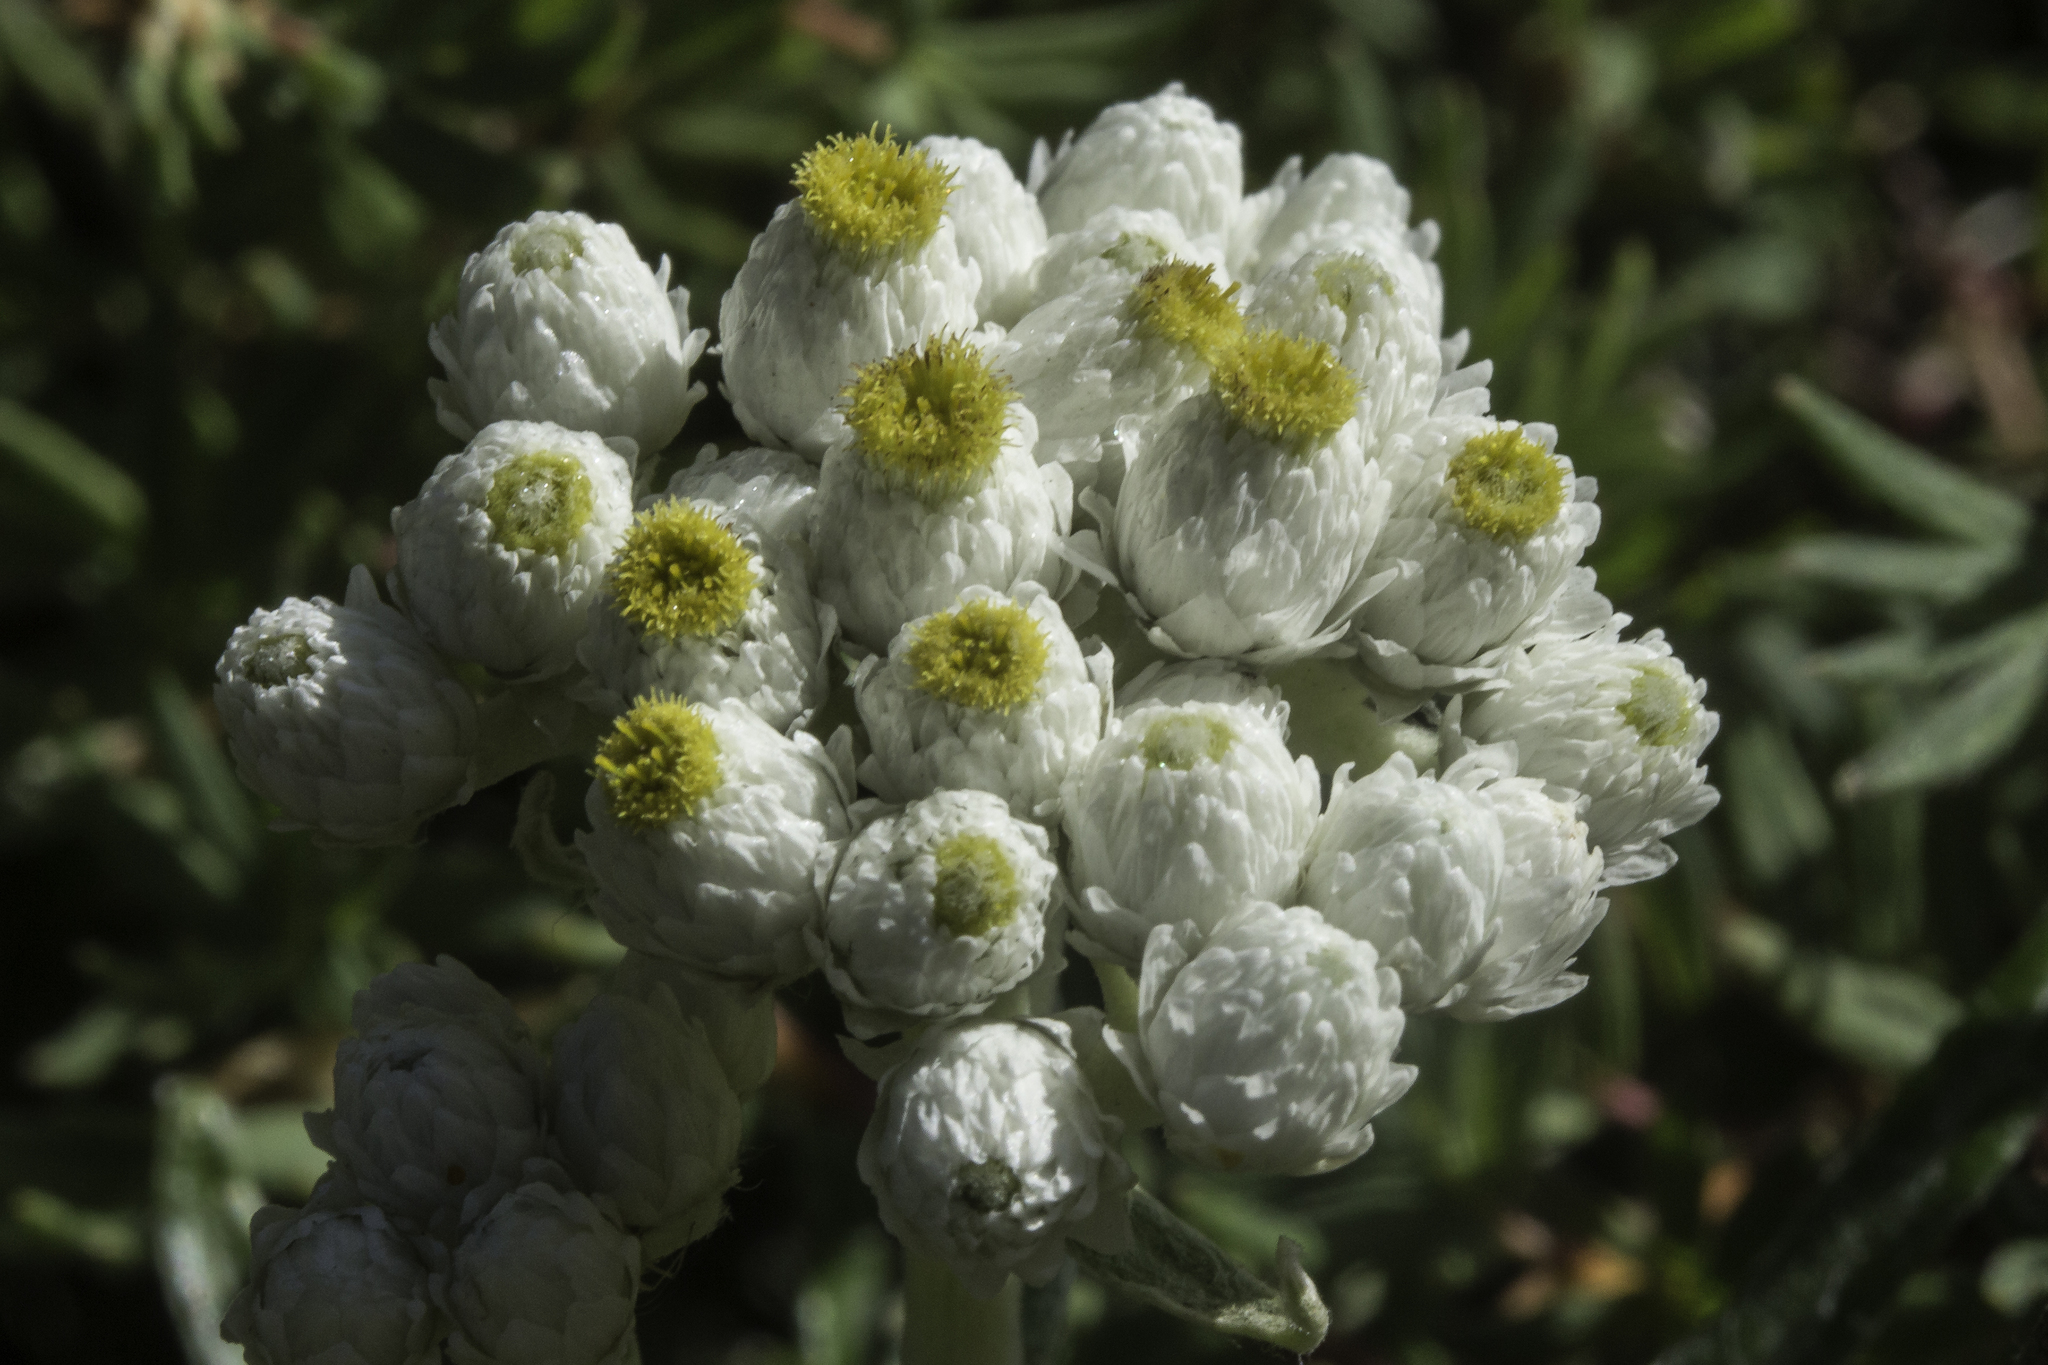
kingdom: Plantae
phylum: Tracheophyta
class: Magnoliopsida
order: Asterales
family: Asteraceae
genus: Anaphalis
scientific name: Anaphalis margaritacea
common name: Pearly everlasting
